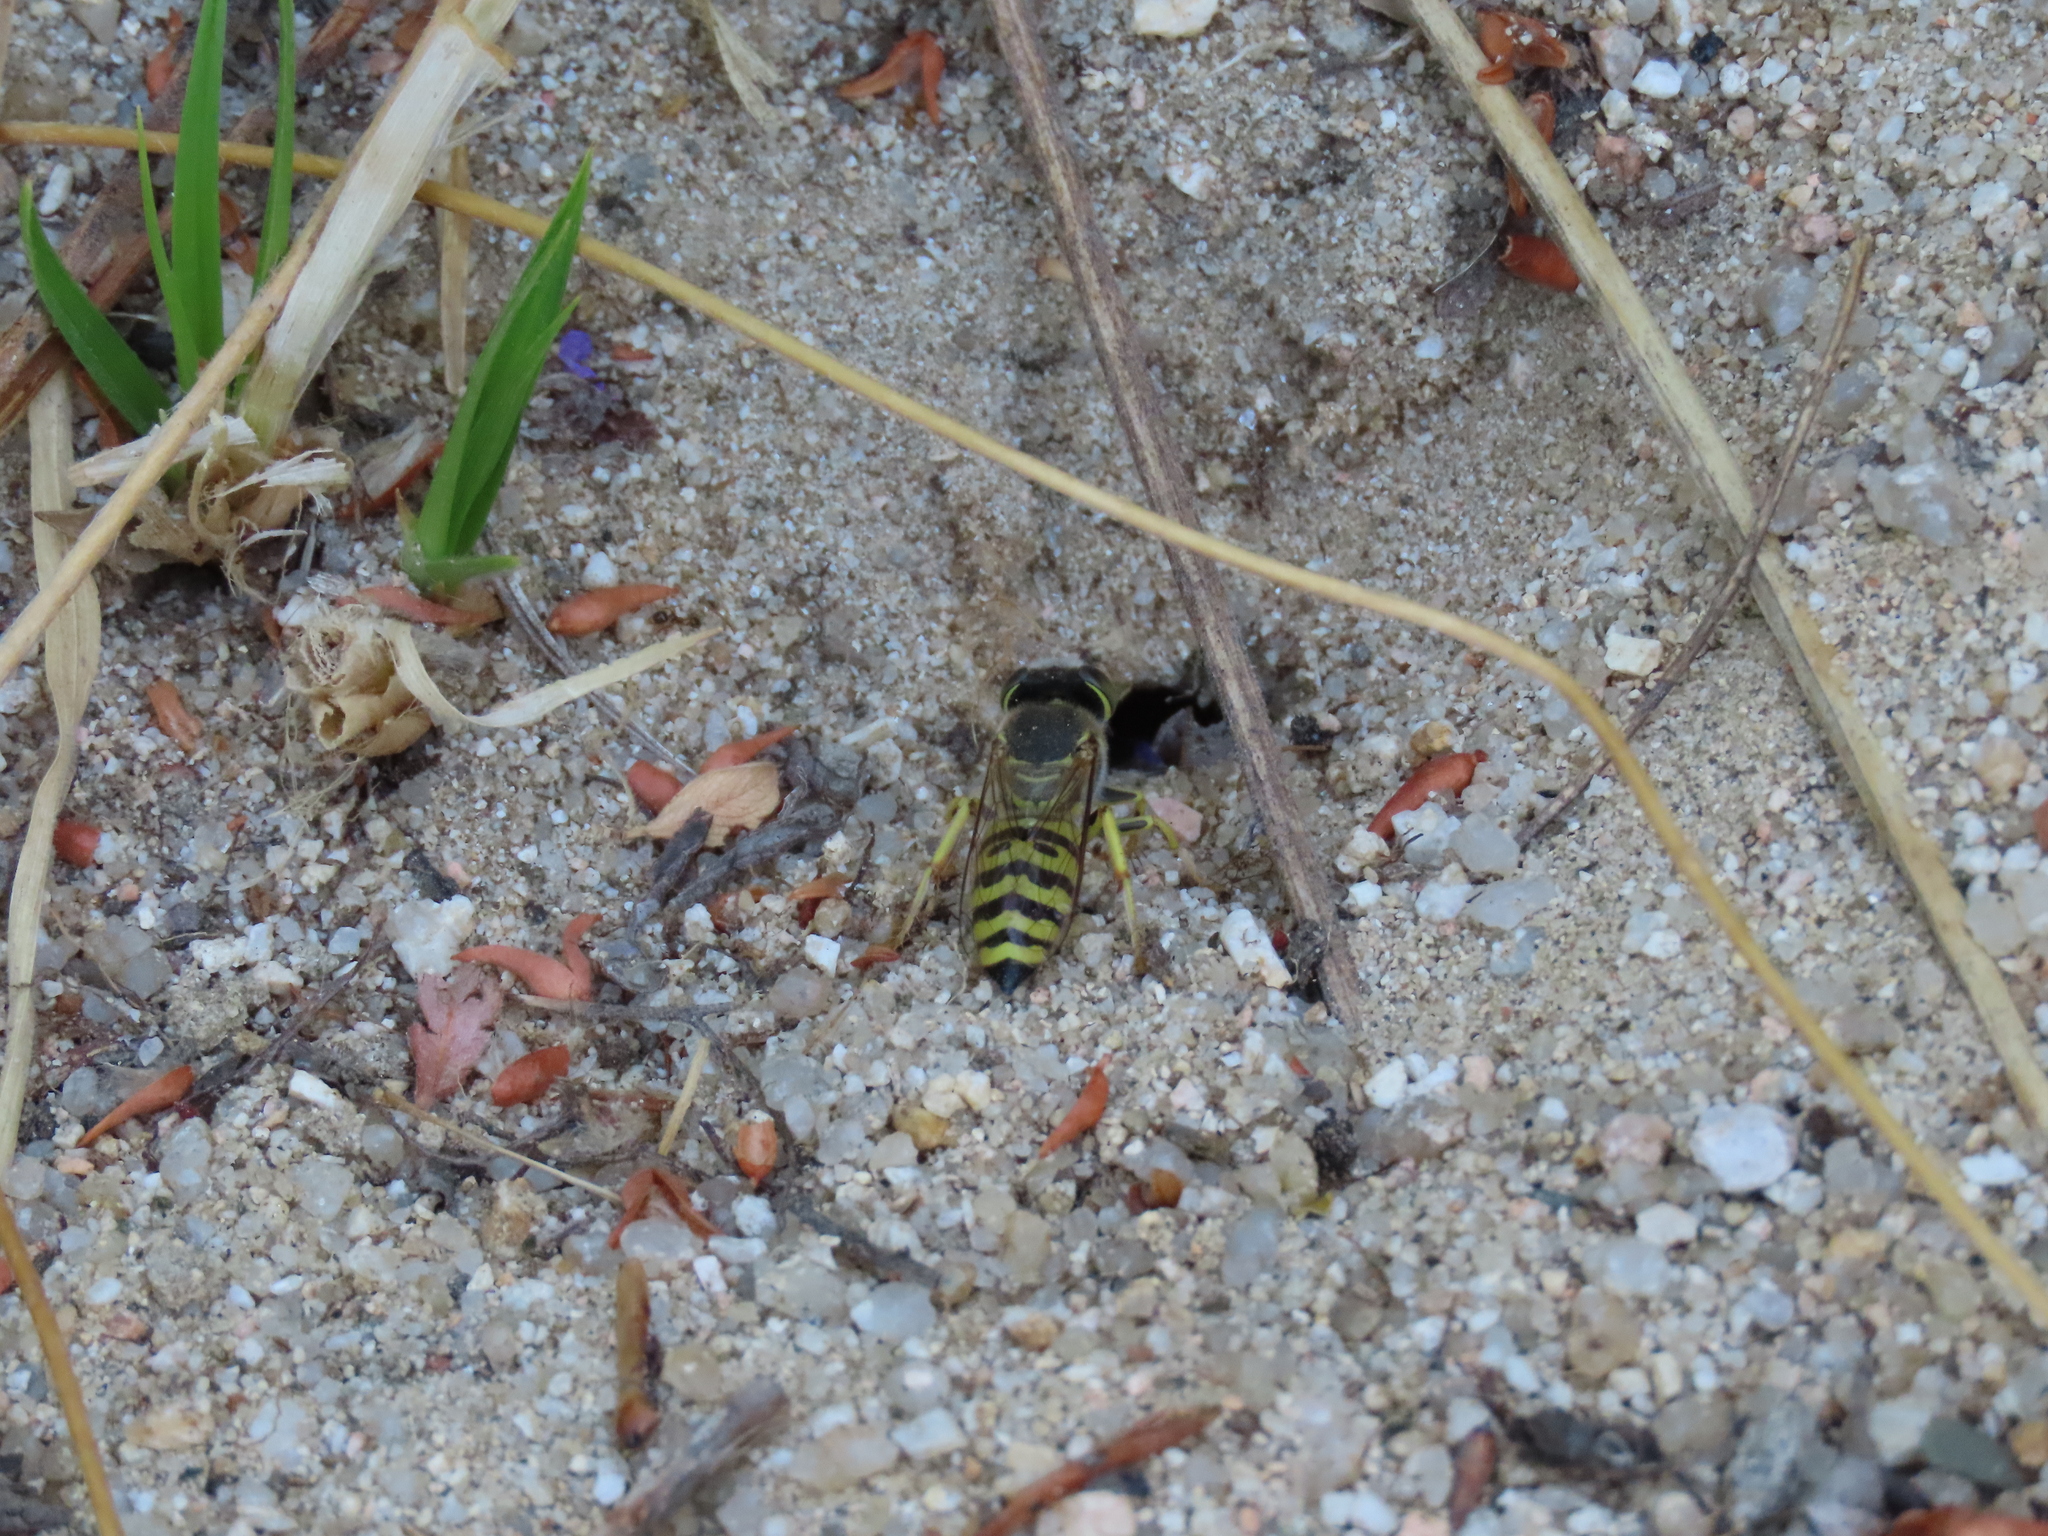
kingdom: Animalia
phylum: Arthropoda
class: Insecta
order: Hymenoptera
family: Crabronidae
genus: Bembix
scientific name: Bembix oculata
